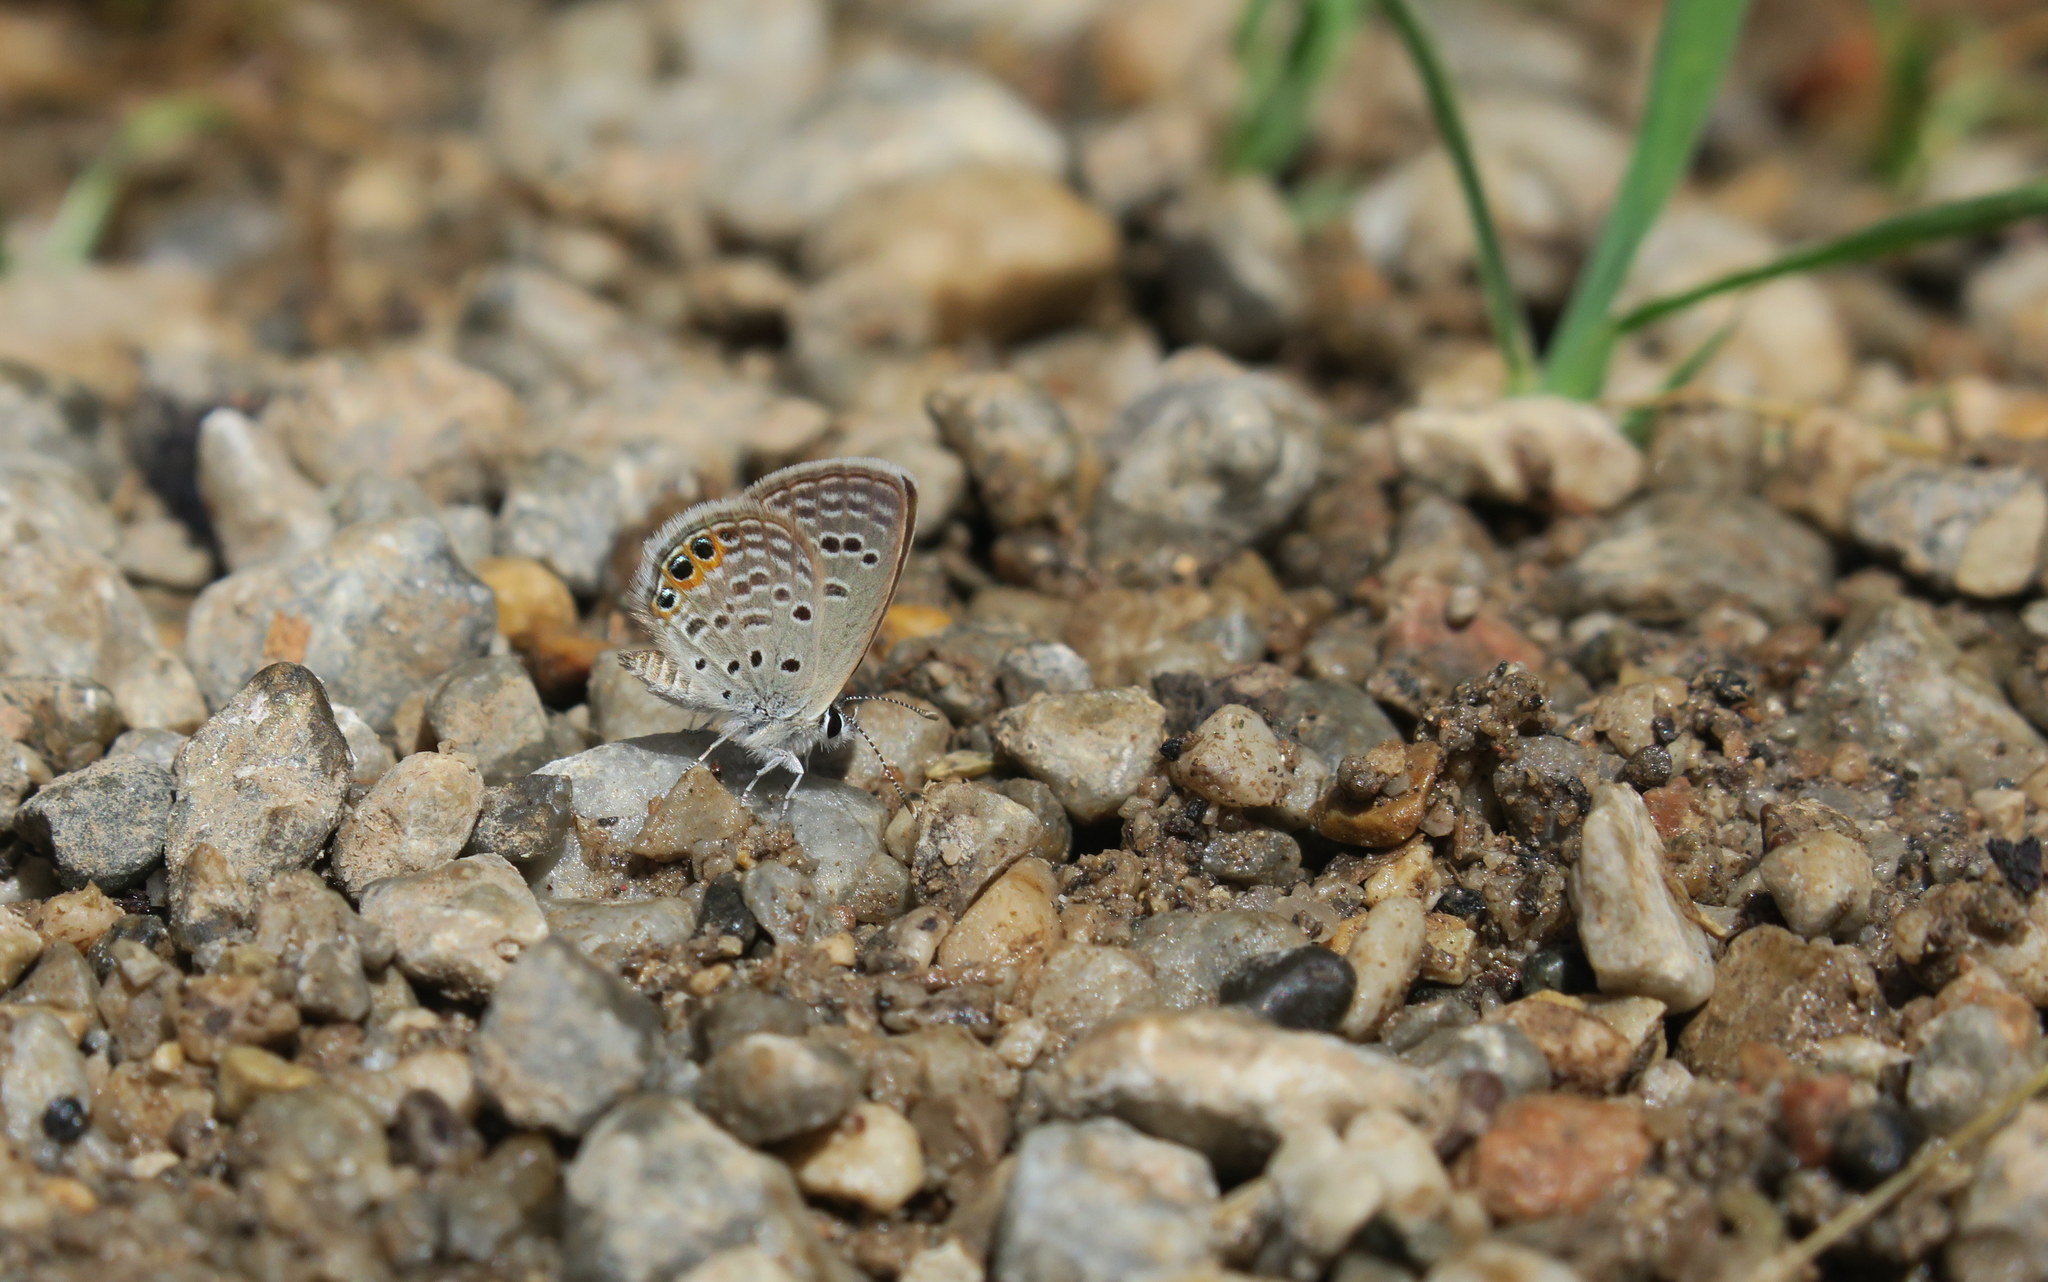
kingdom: Animalia
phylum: Arthropoda
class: Insecta
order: Lepidoptera
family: Lycaenidae
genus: Freyeria
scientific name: Freyeria trochylus
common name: Grass jewel
